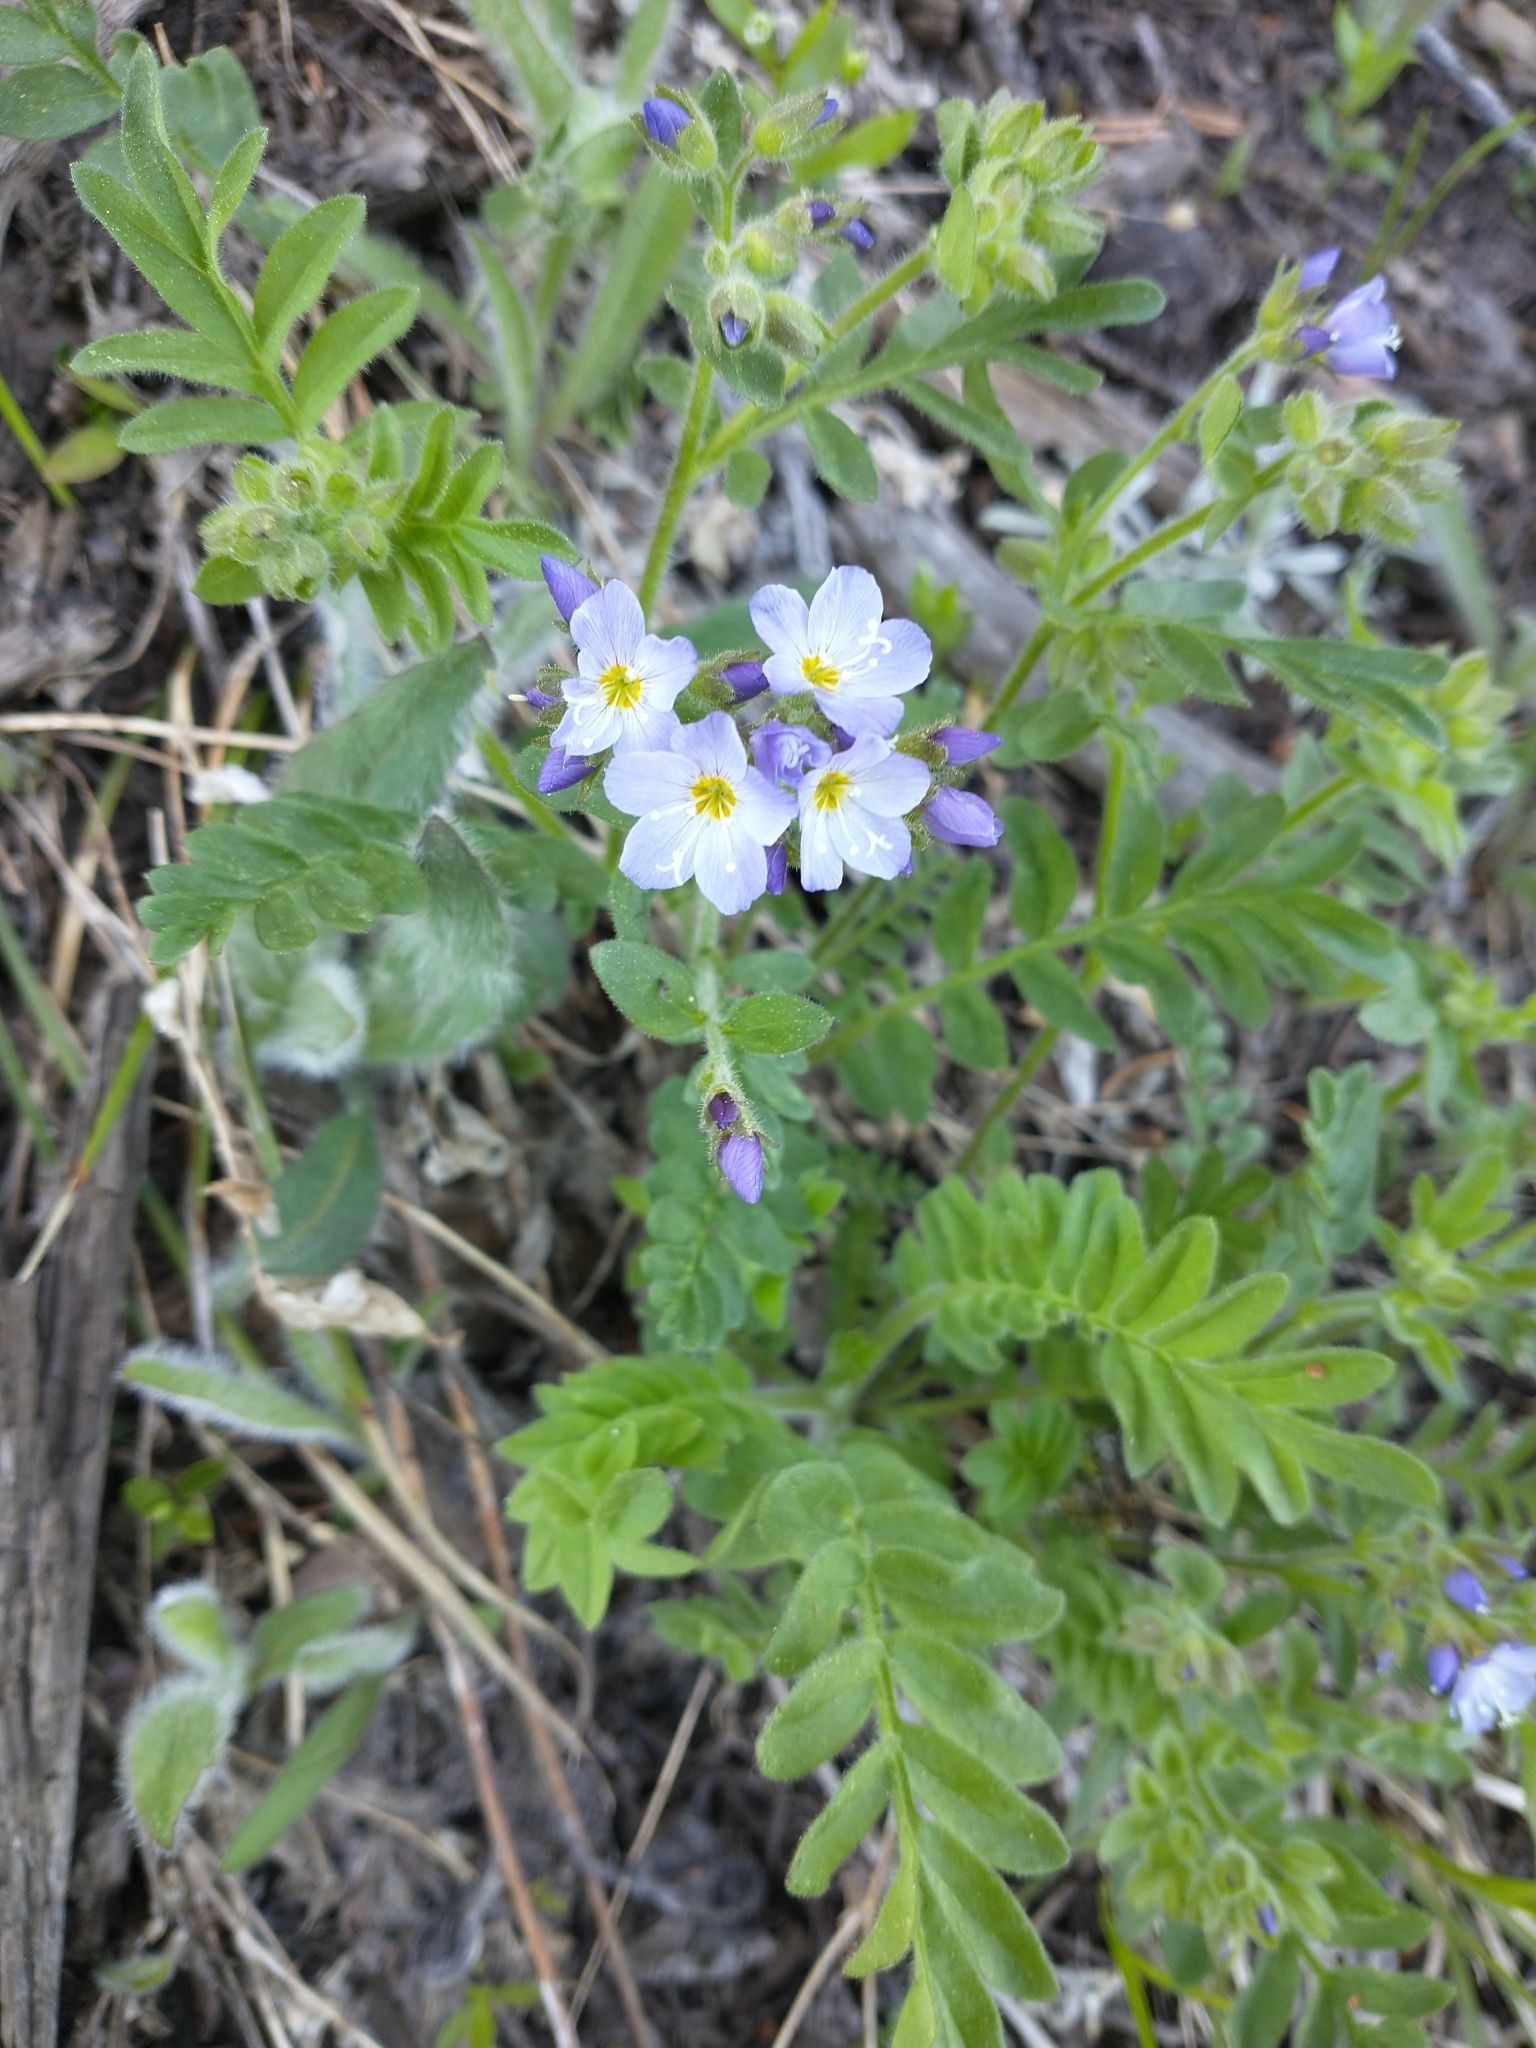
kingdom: Plantae
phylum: Tracheophyta
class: Magnoliopsida
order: Ericales
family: Polemoniaceae
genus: Polemonium
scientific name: Polemonium californicum
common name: California jacob's ladder
